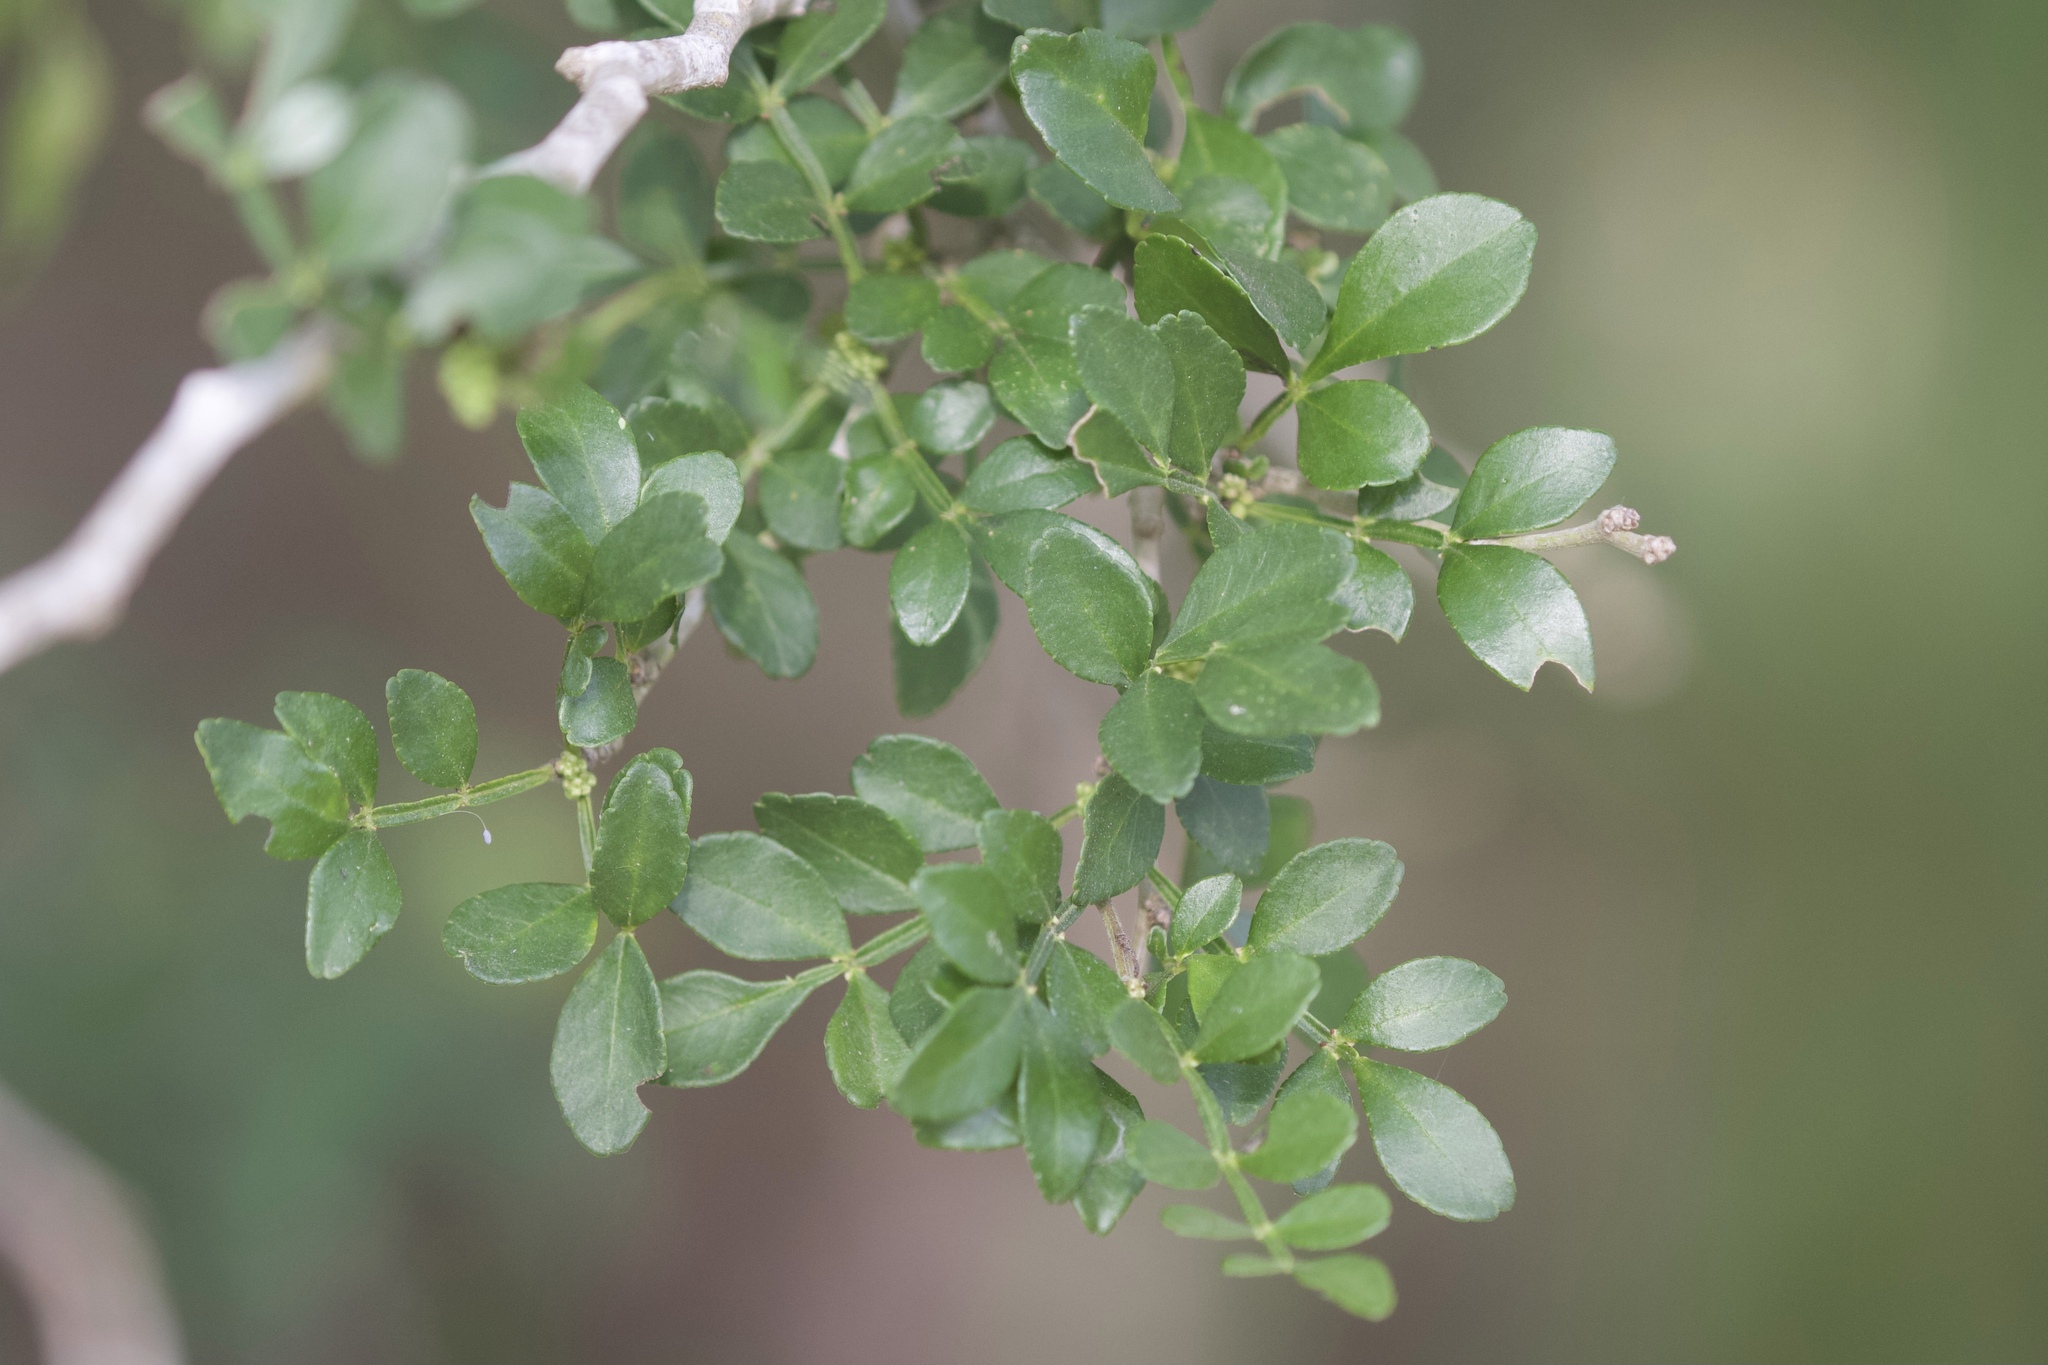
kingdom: Plantae
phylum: Tracheophyta
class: Magnoliopsida
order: Sapindales
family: Rutaceae
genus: Zanthoxylum
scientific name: Zanthoxylum fagara
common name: Lime prickly-ash
